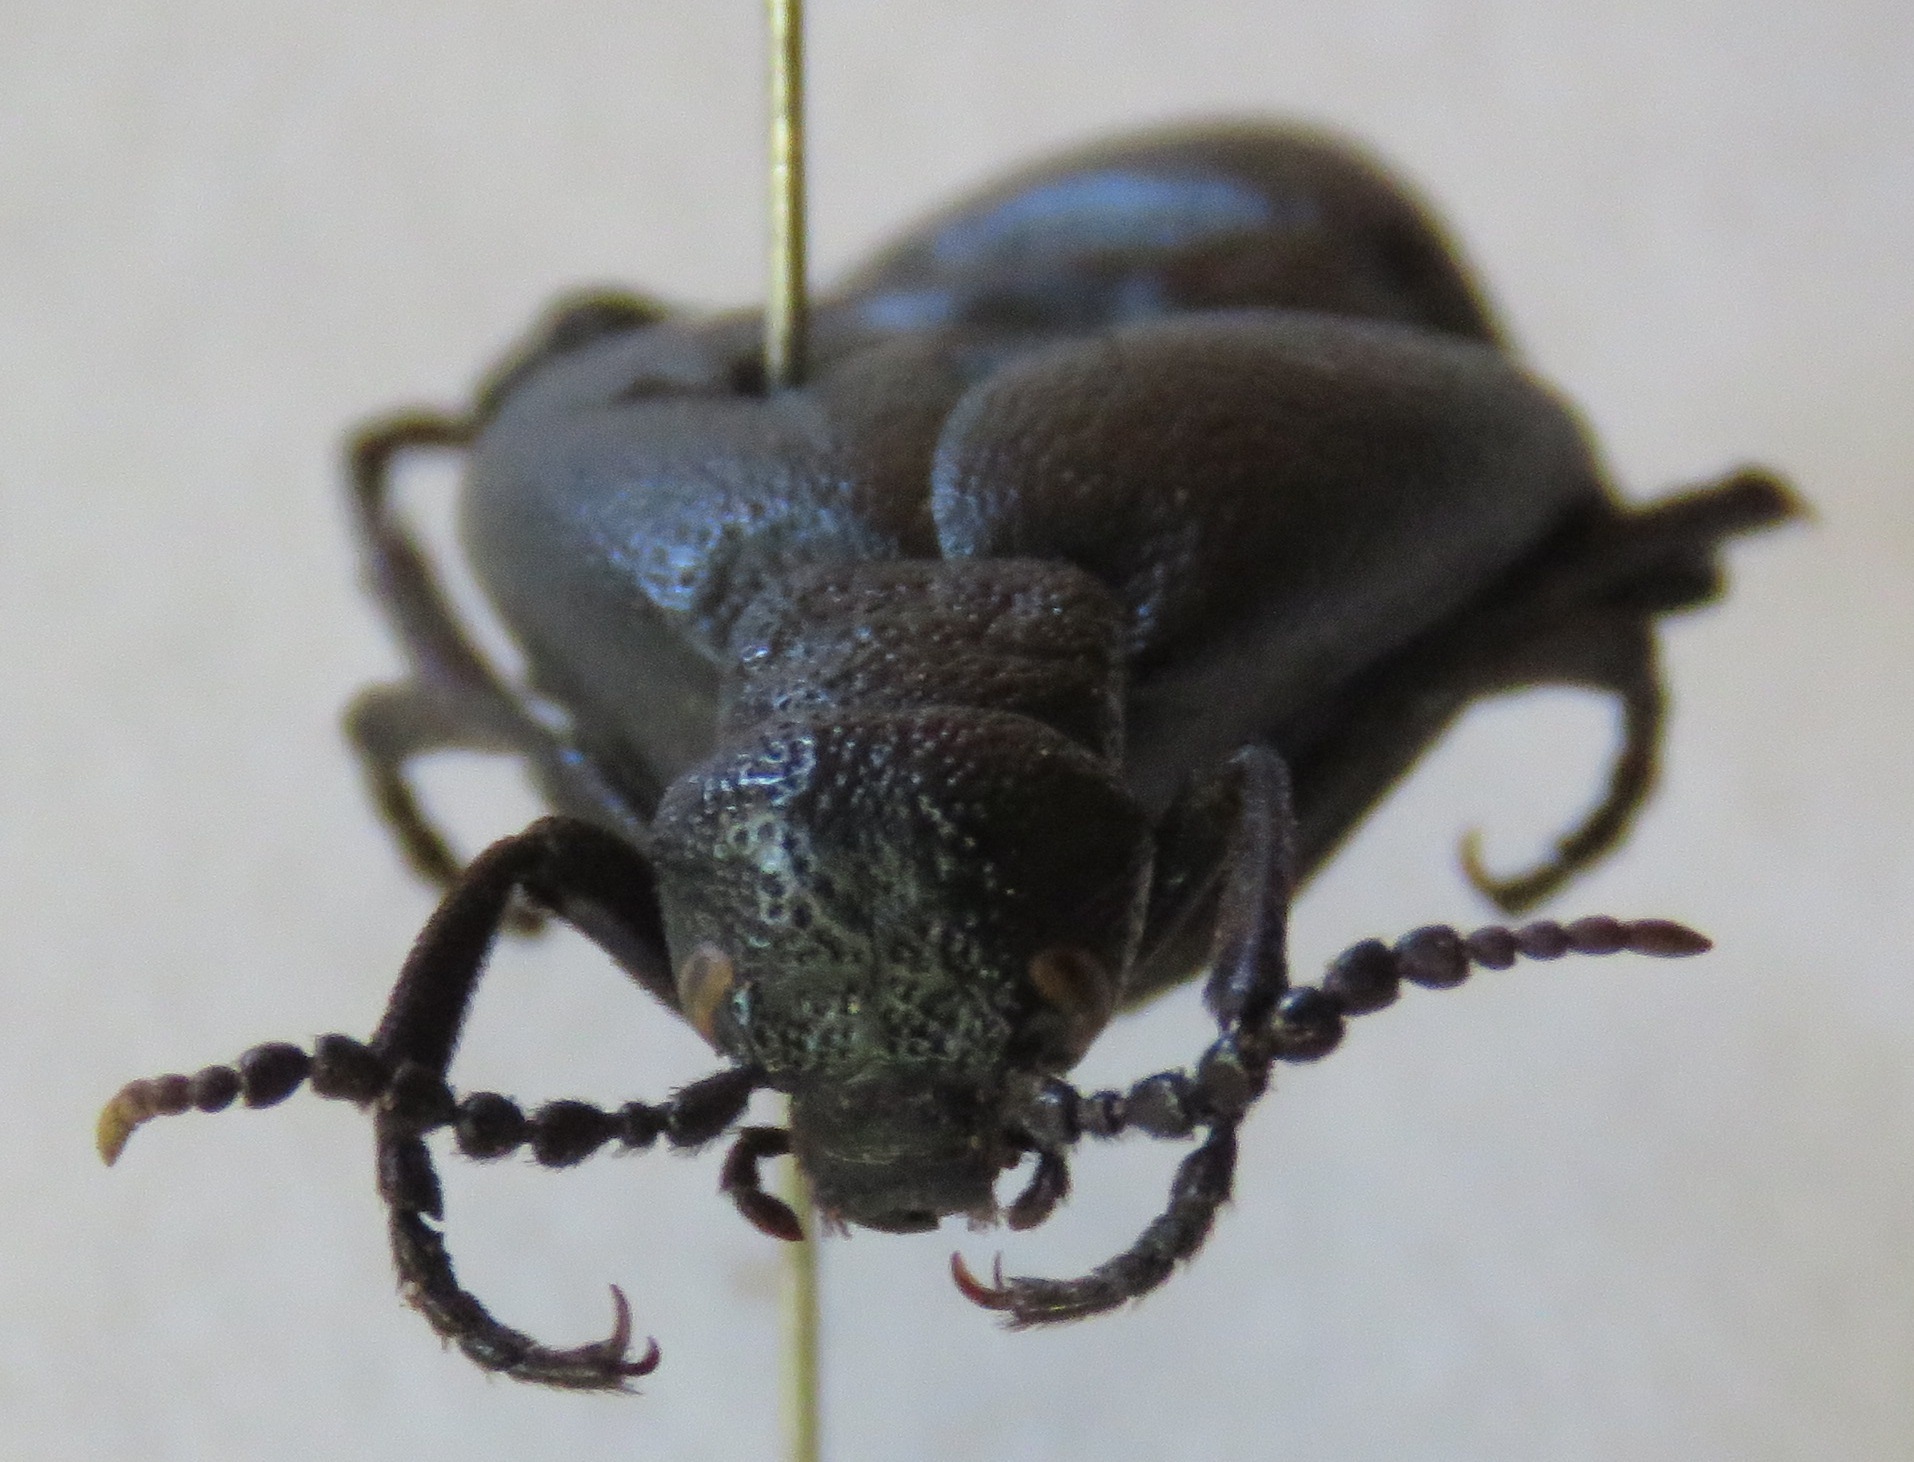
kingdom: Animalia
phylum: Arthropoda
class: Insecta
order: Coleoptera
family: Meloidae
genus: Meloe
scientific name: Meloe proscarabaeus
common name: Black oil-beetle
